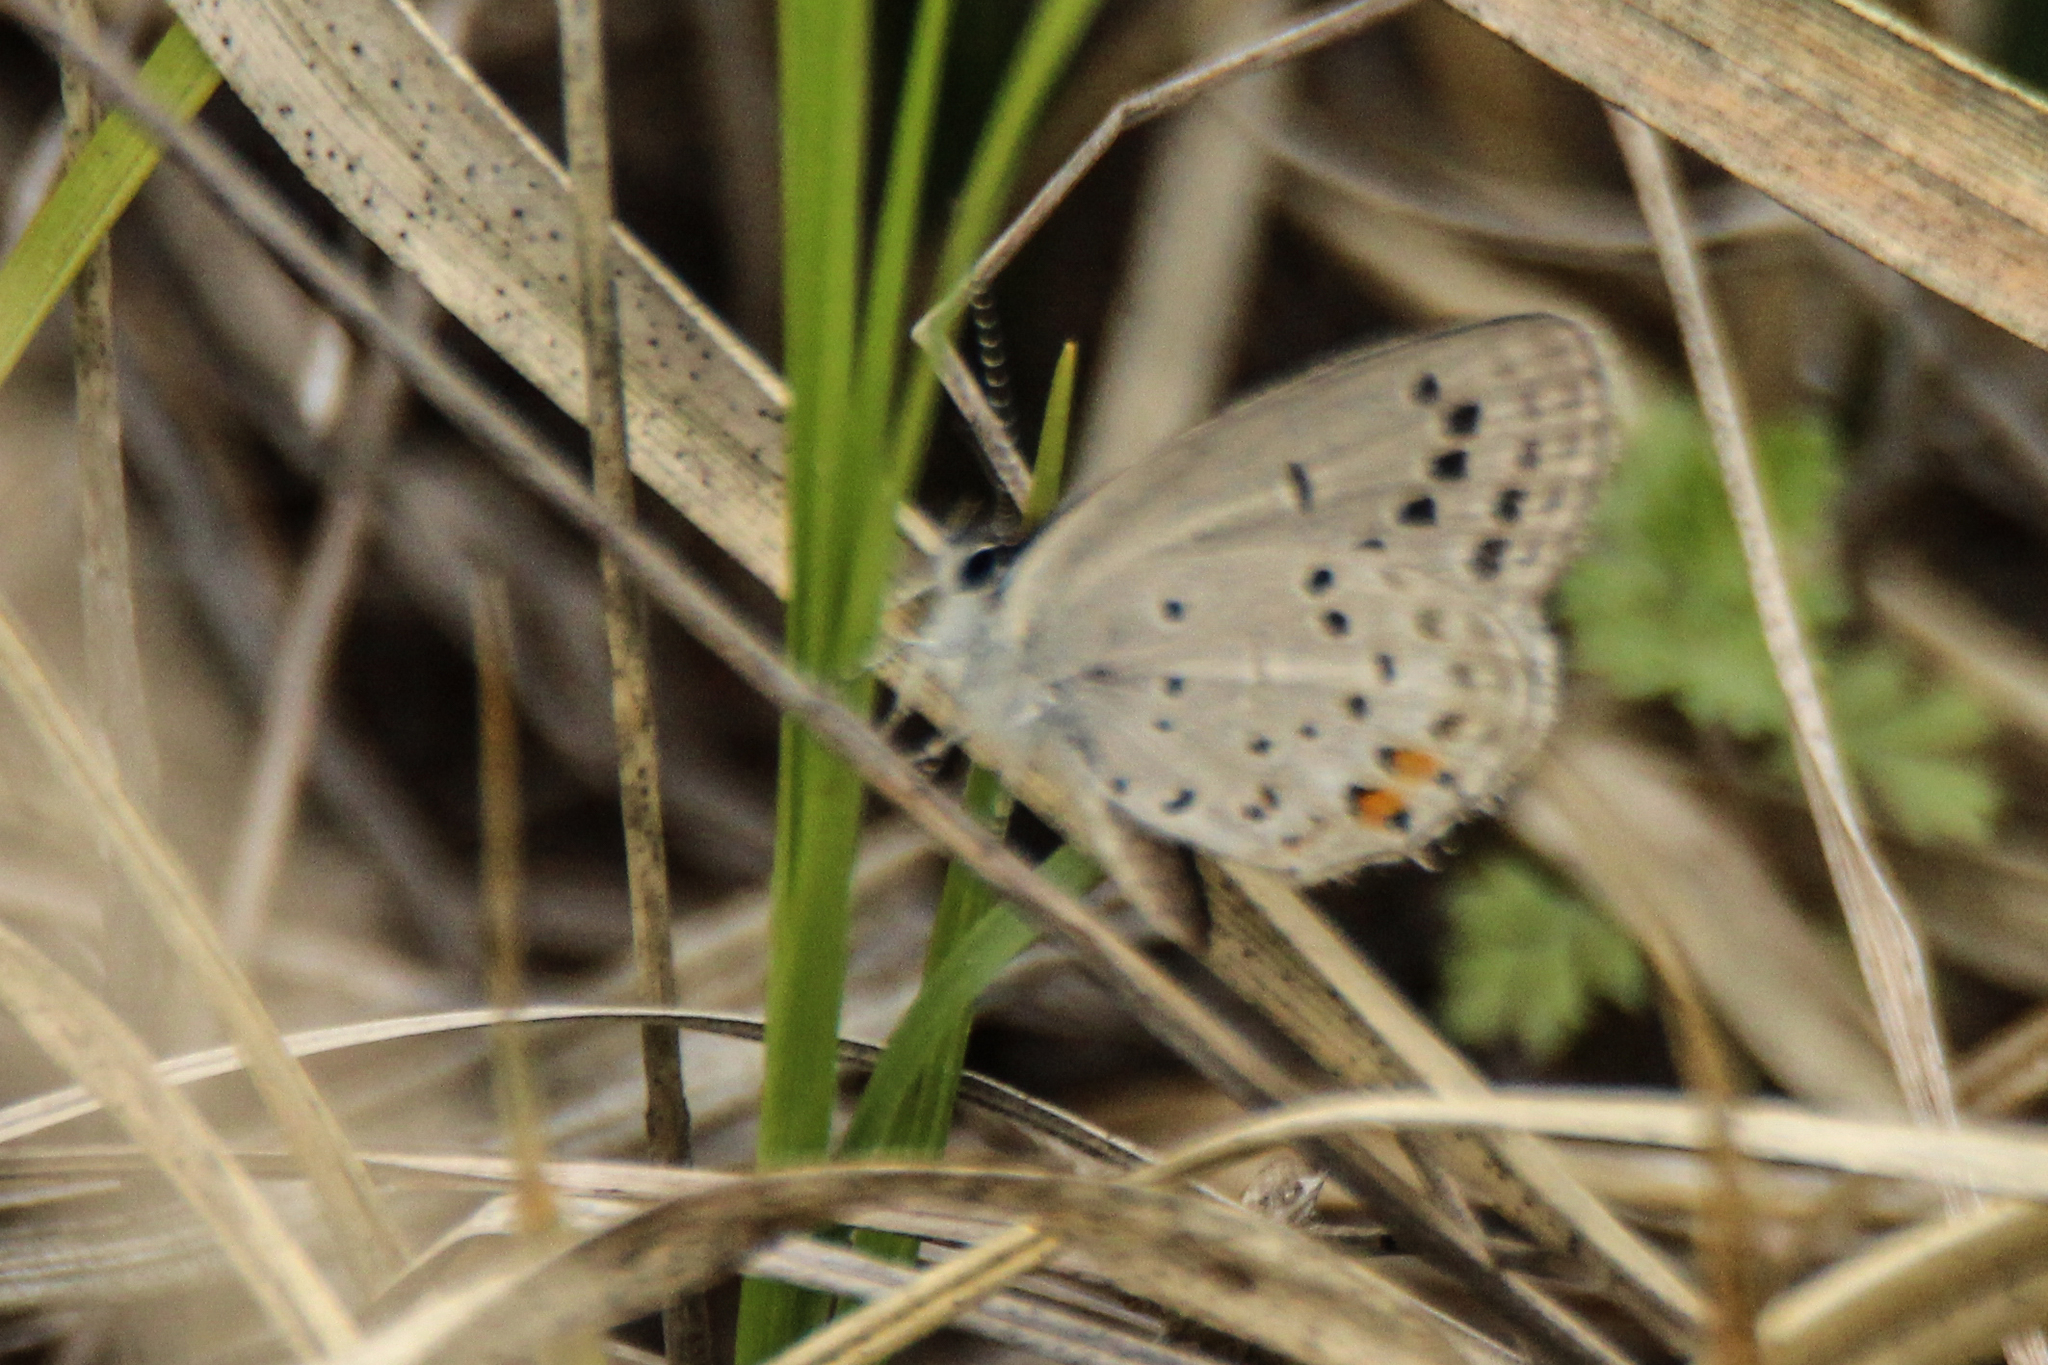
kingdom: Animalia
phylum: Arthropoda
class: Insecta
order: Lepidoptera
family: Lycaenidae
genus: Tongeia
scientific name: Tongeia fischeri
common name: Fischer's blue
